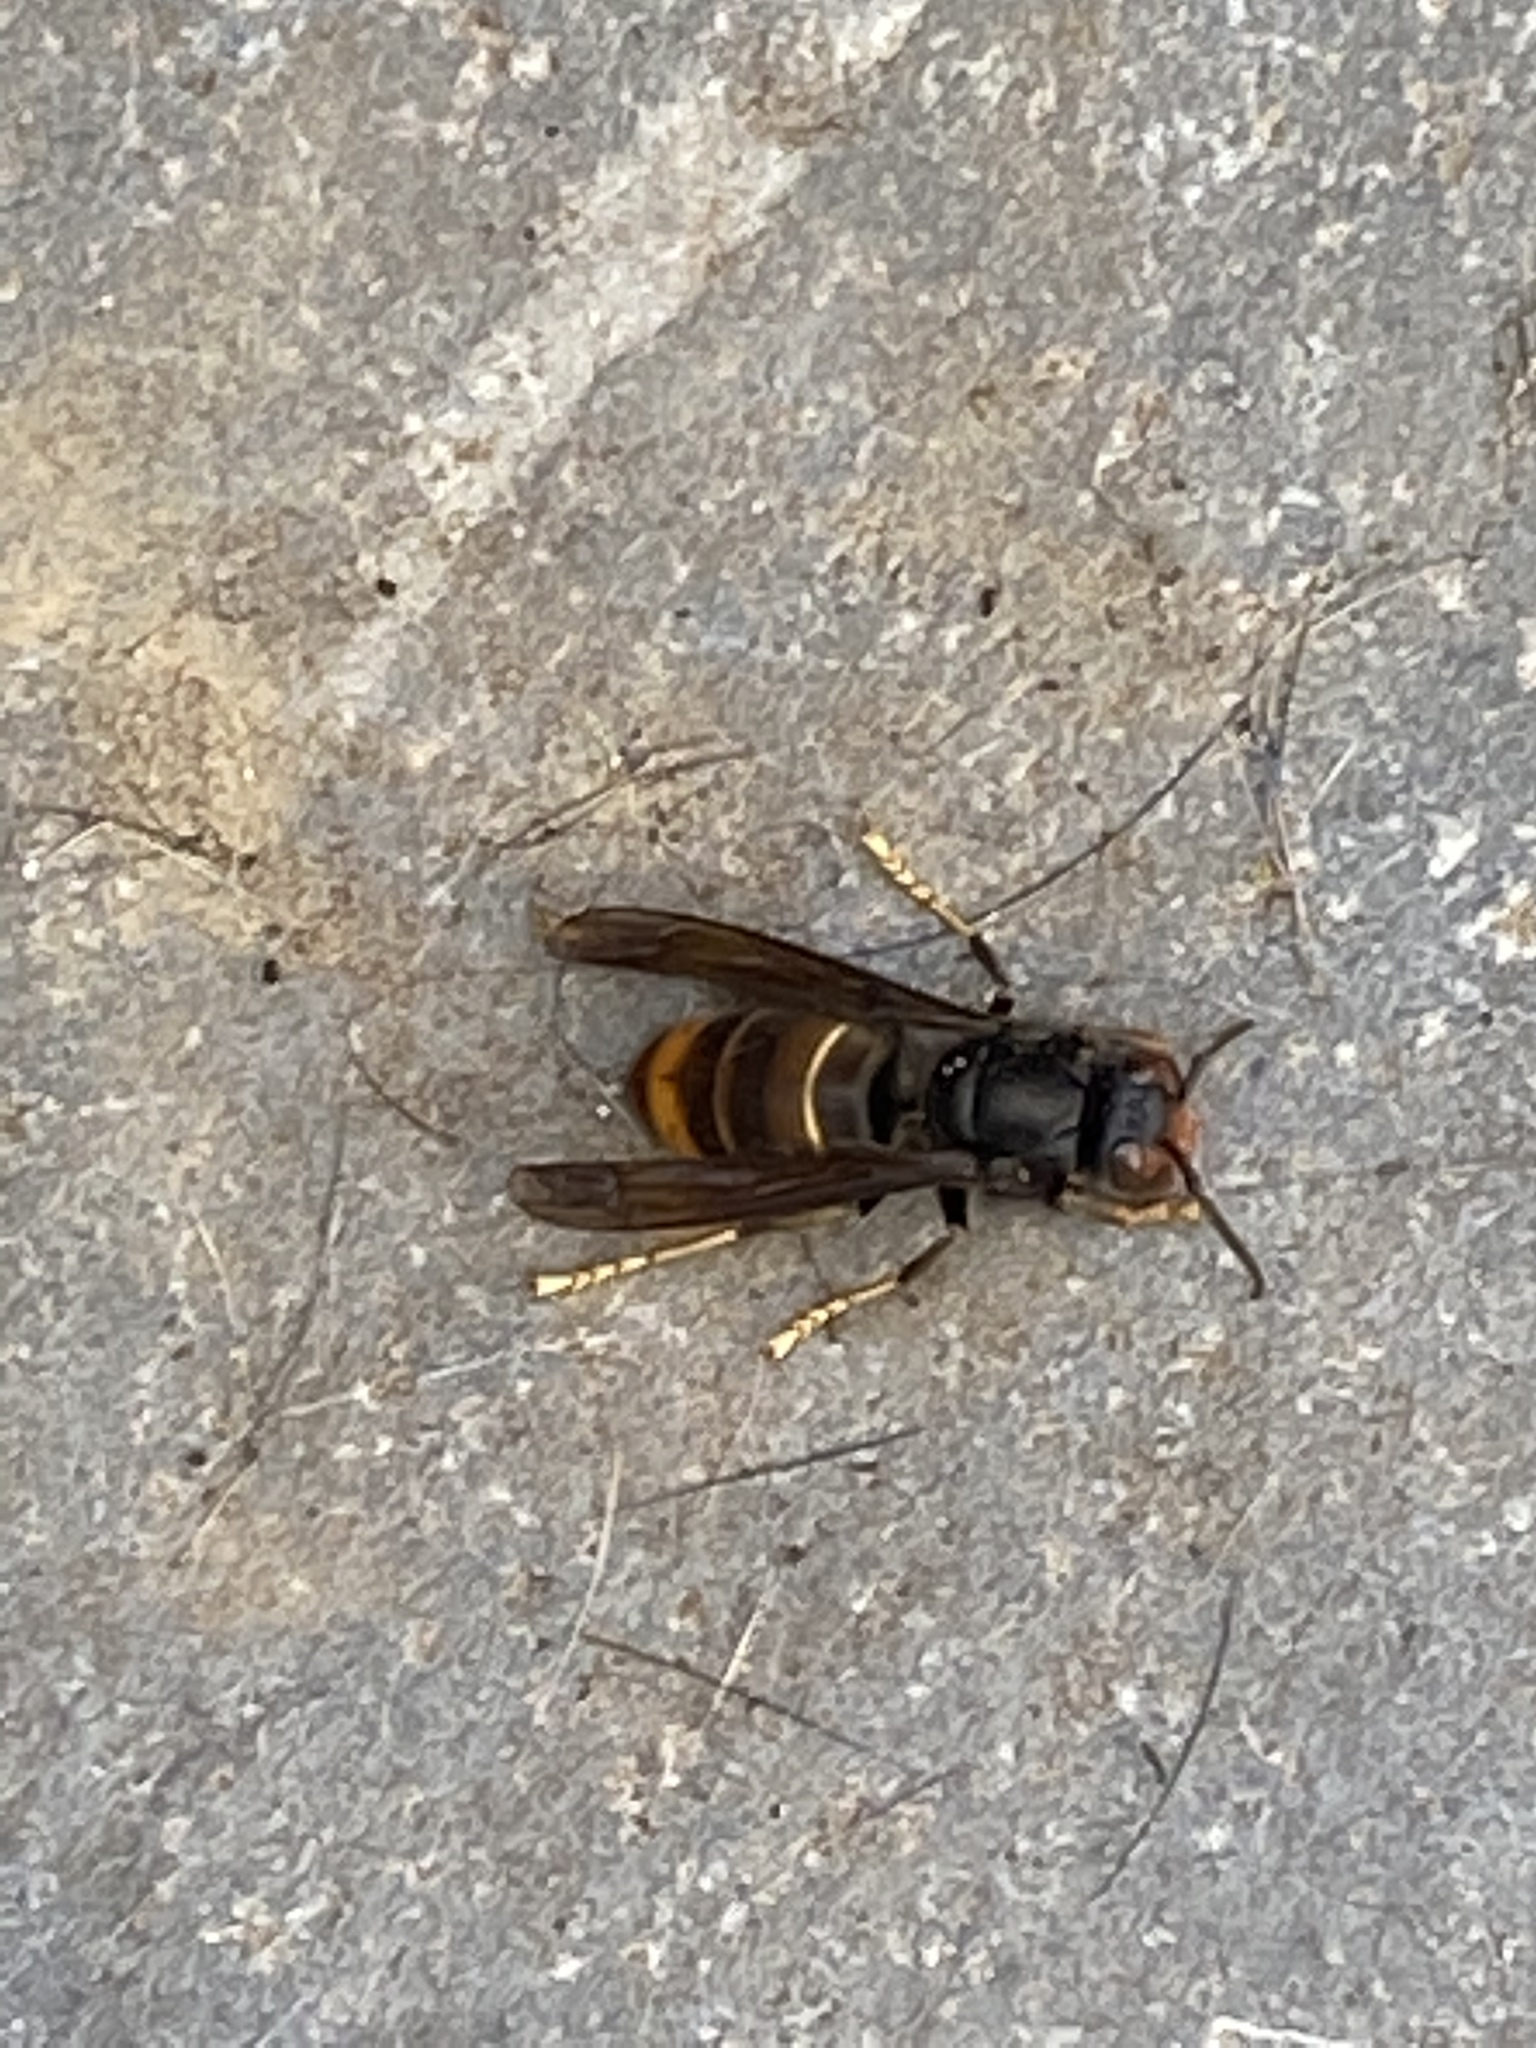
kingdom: Animalia
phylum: Arthropoda
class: Insecta
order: Hymenoptera
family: Vespidae
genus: Vespa
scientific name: Vespa velutina
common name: Asian hornet
